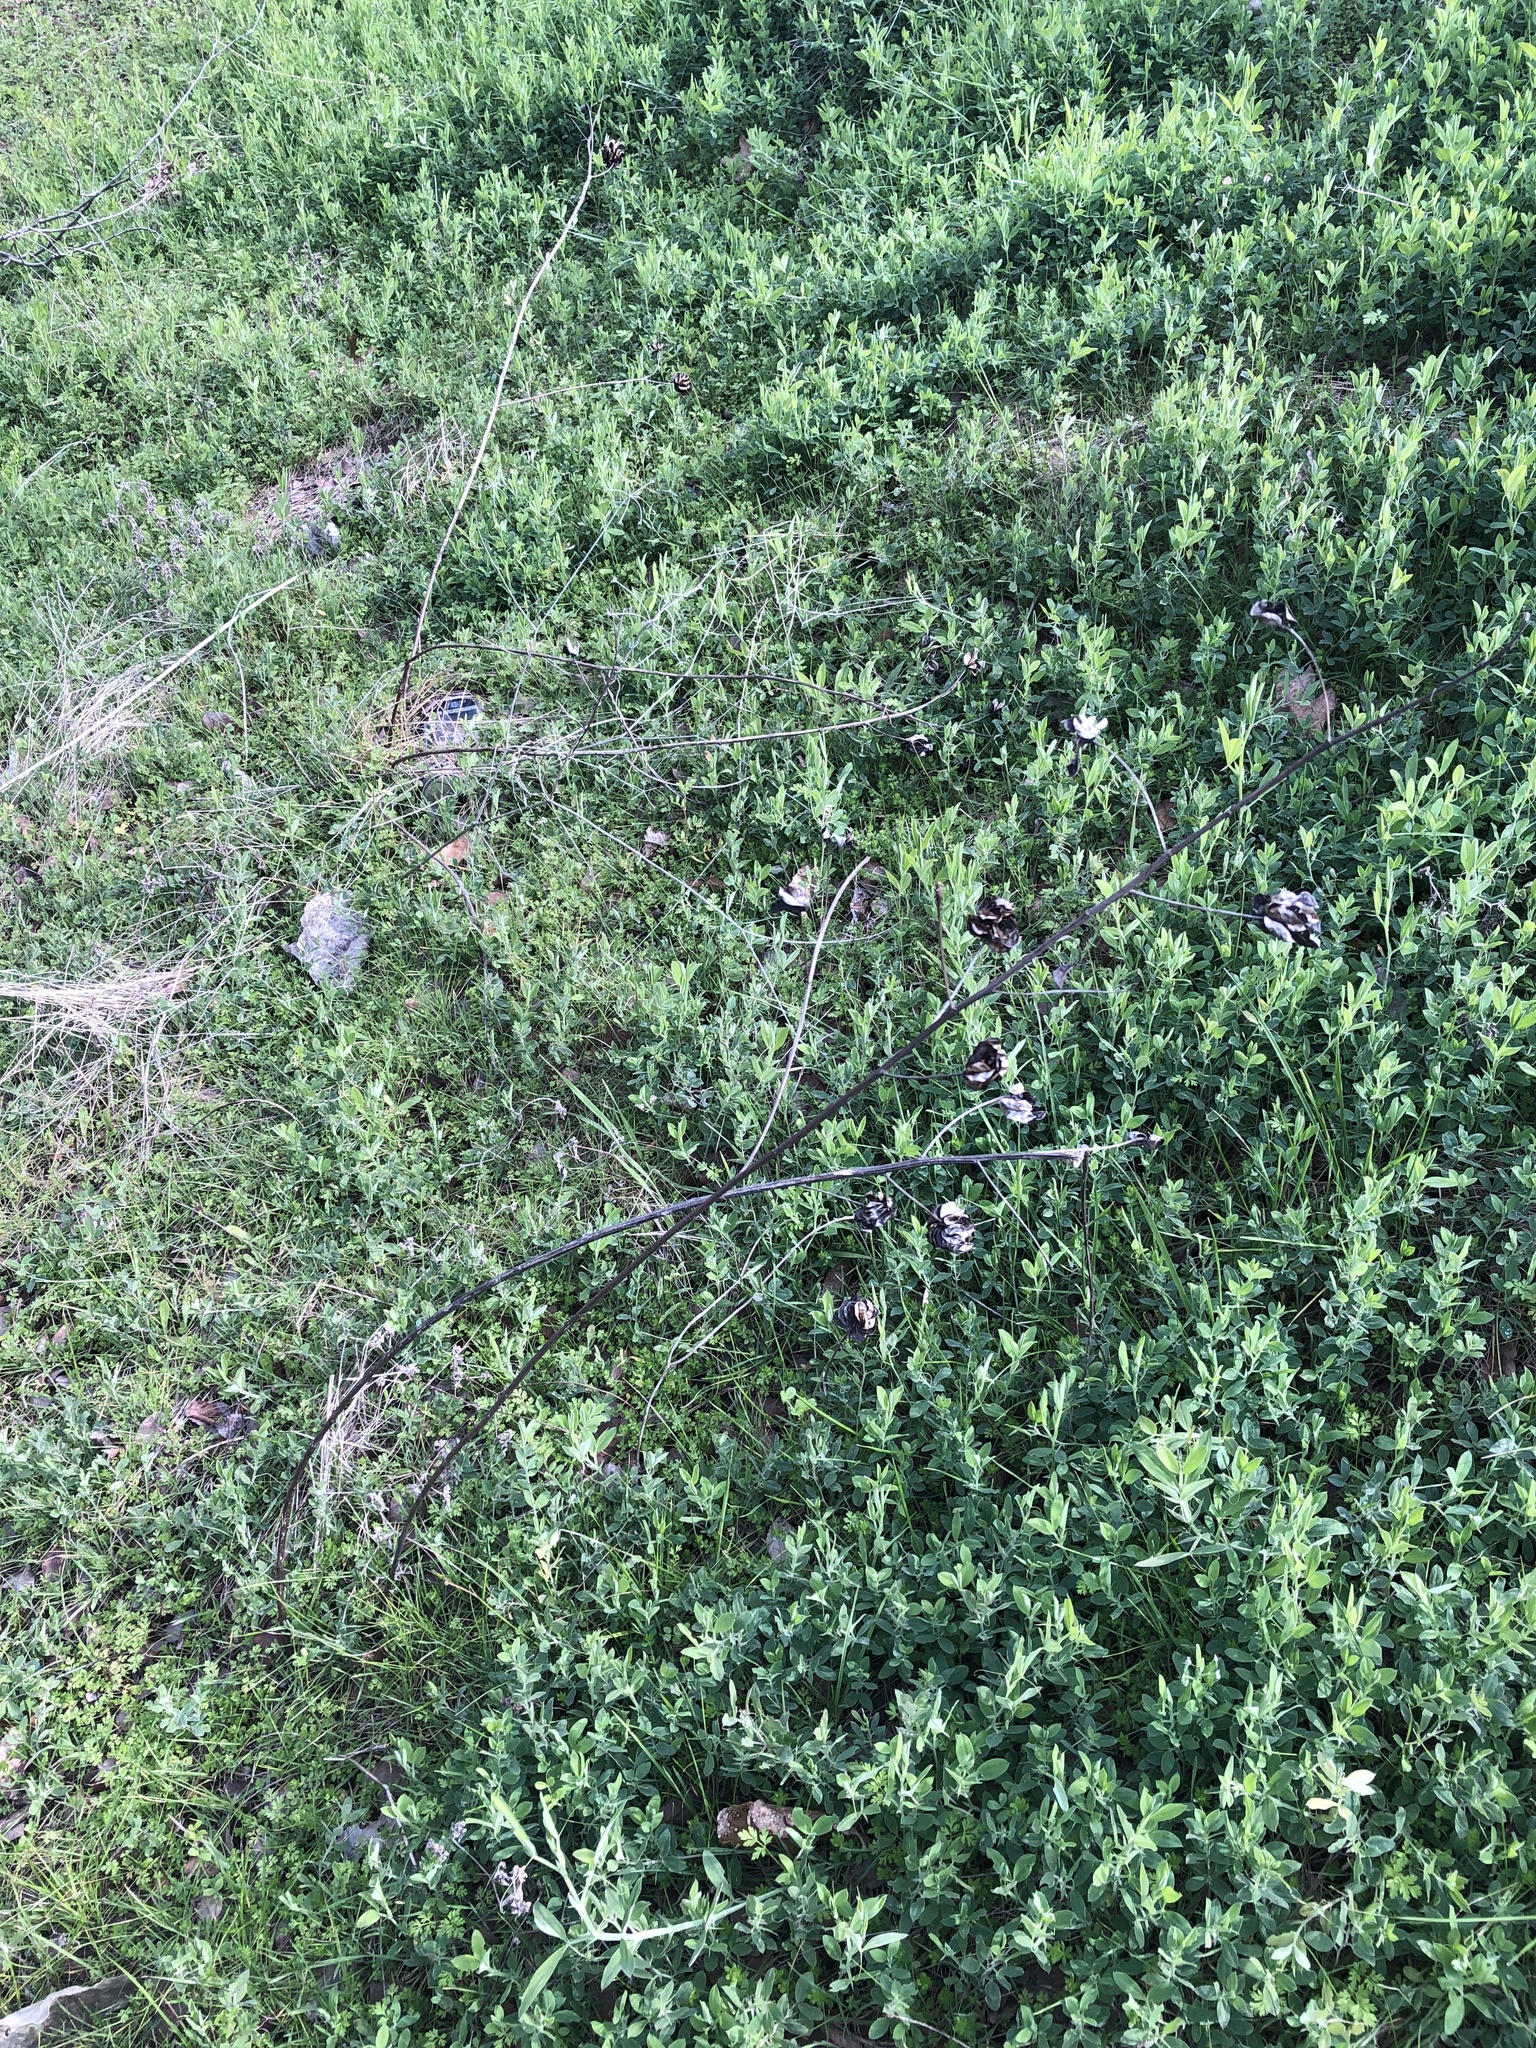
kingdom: Plantae
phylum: Tracheophyta
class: Magnoliopsida
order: Fabales
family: Fabaceae
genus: Desmanthus
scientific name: Desmanthus illinoensis
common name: Illinois bundle-flower
